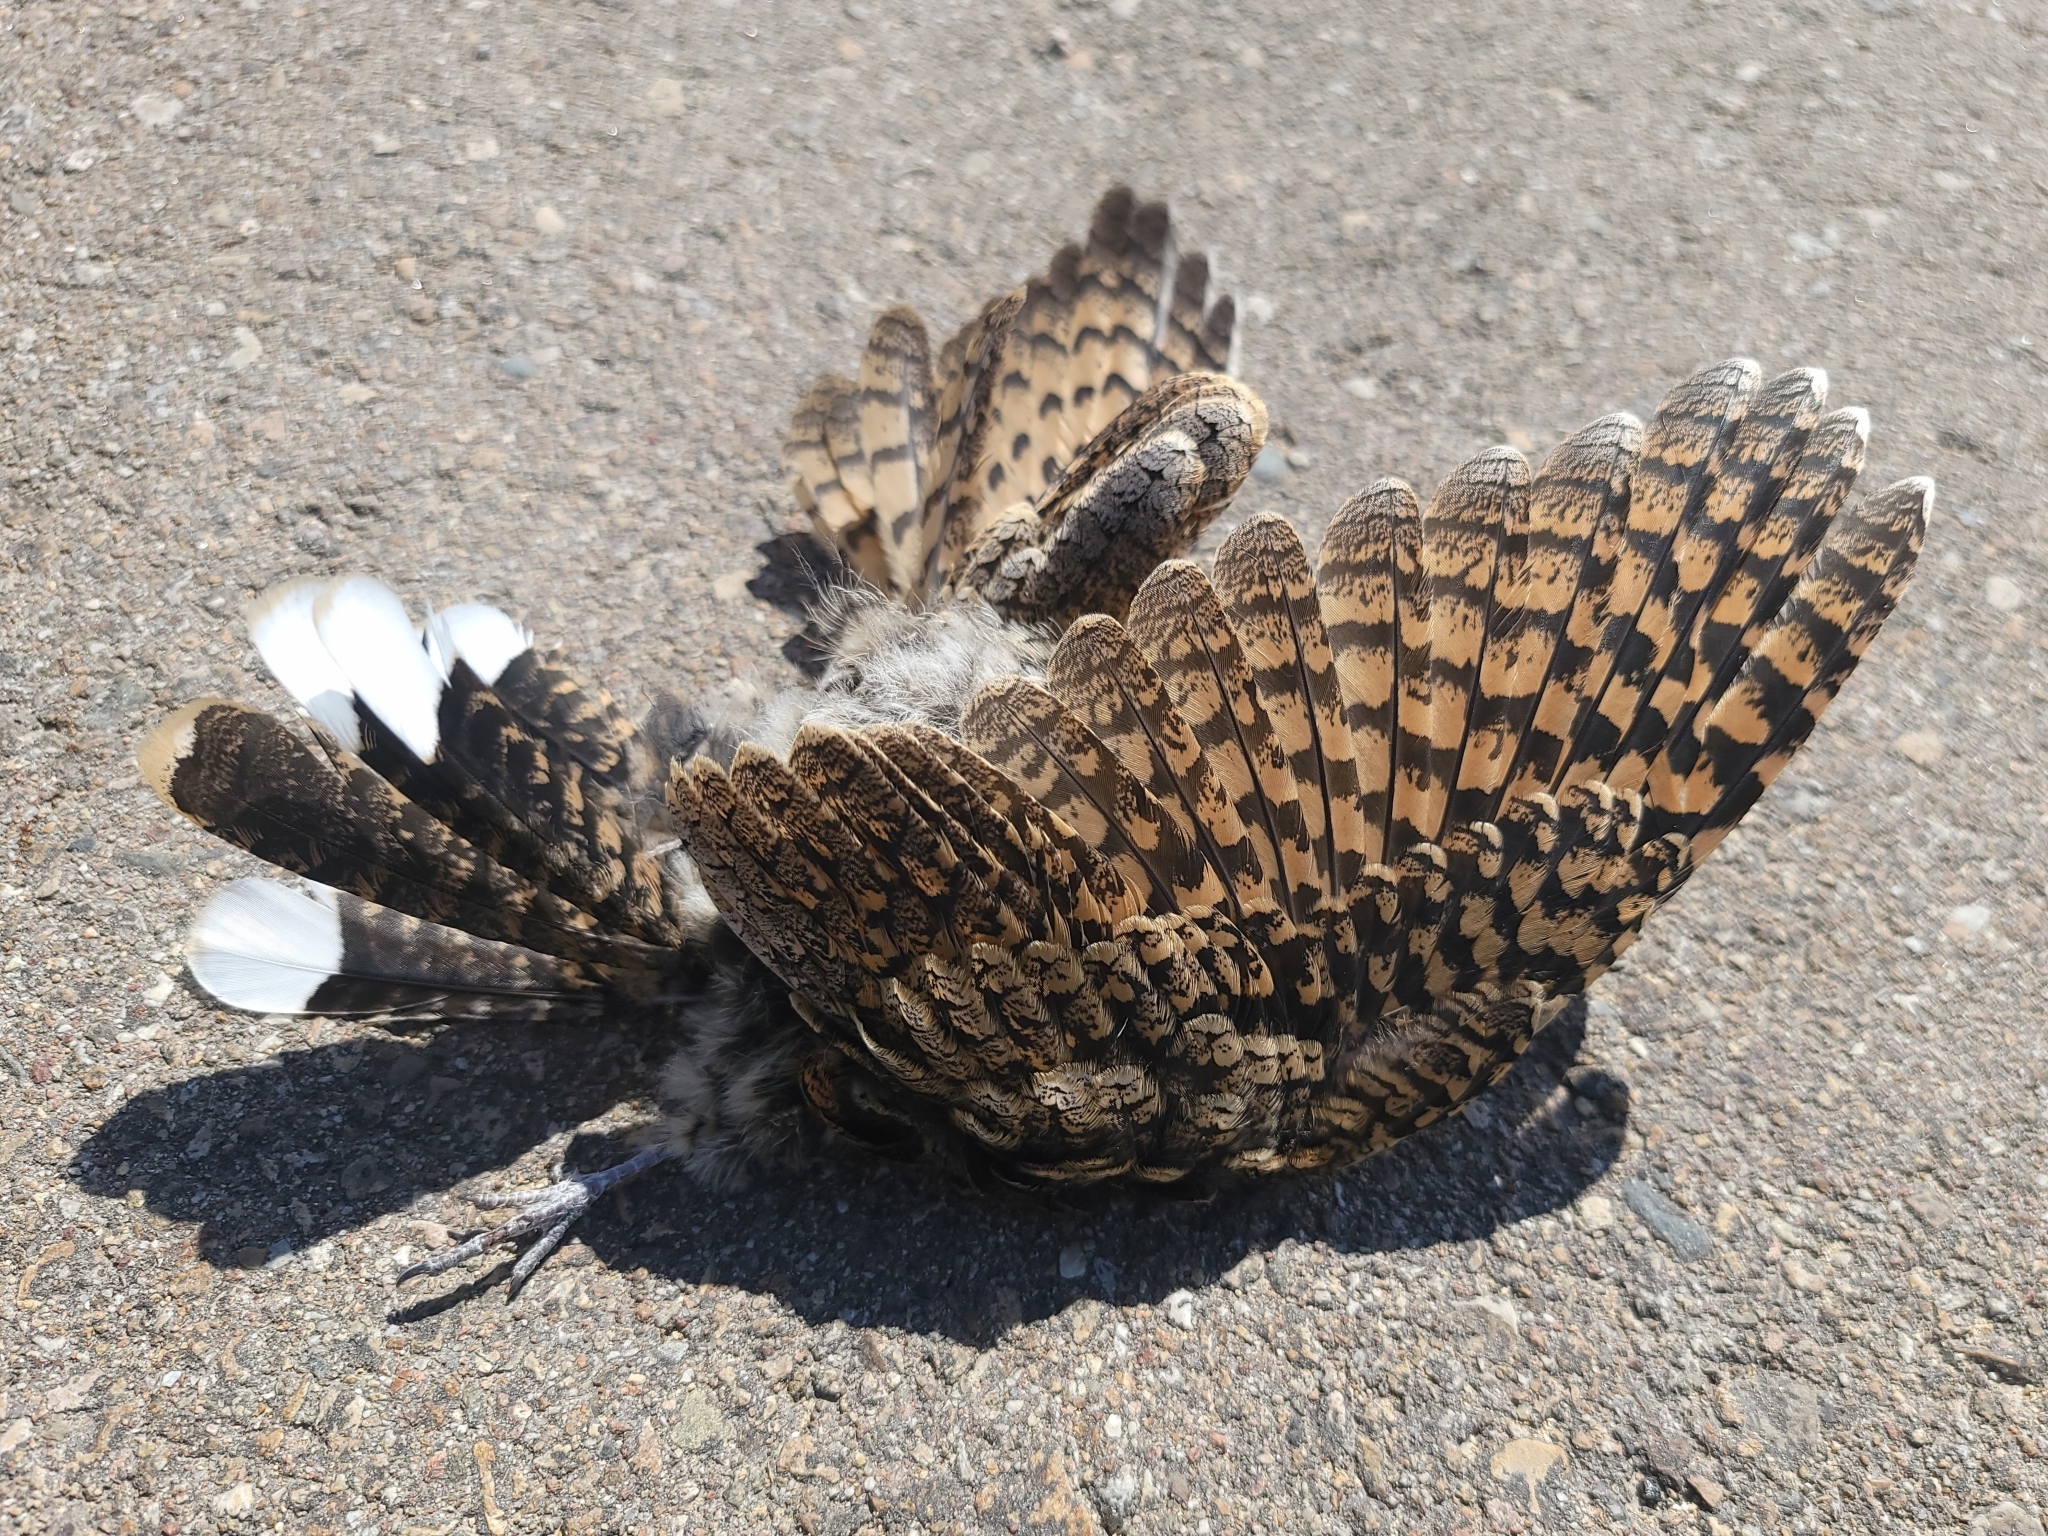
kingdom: Animalia
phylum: Chordata
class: Aves
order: Caprimulgiformes
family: Caprimulgidae
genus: Phalaenoptilus
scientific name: Phalaenoptilus nuttallii
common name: Common poorwill
